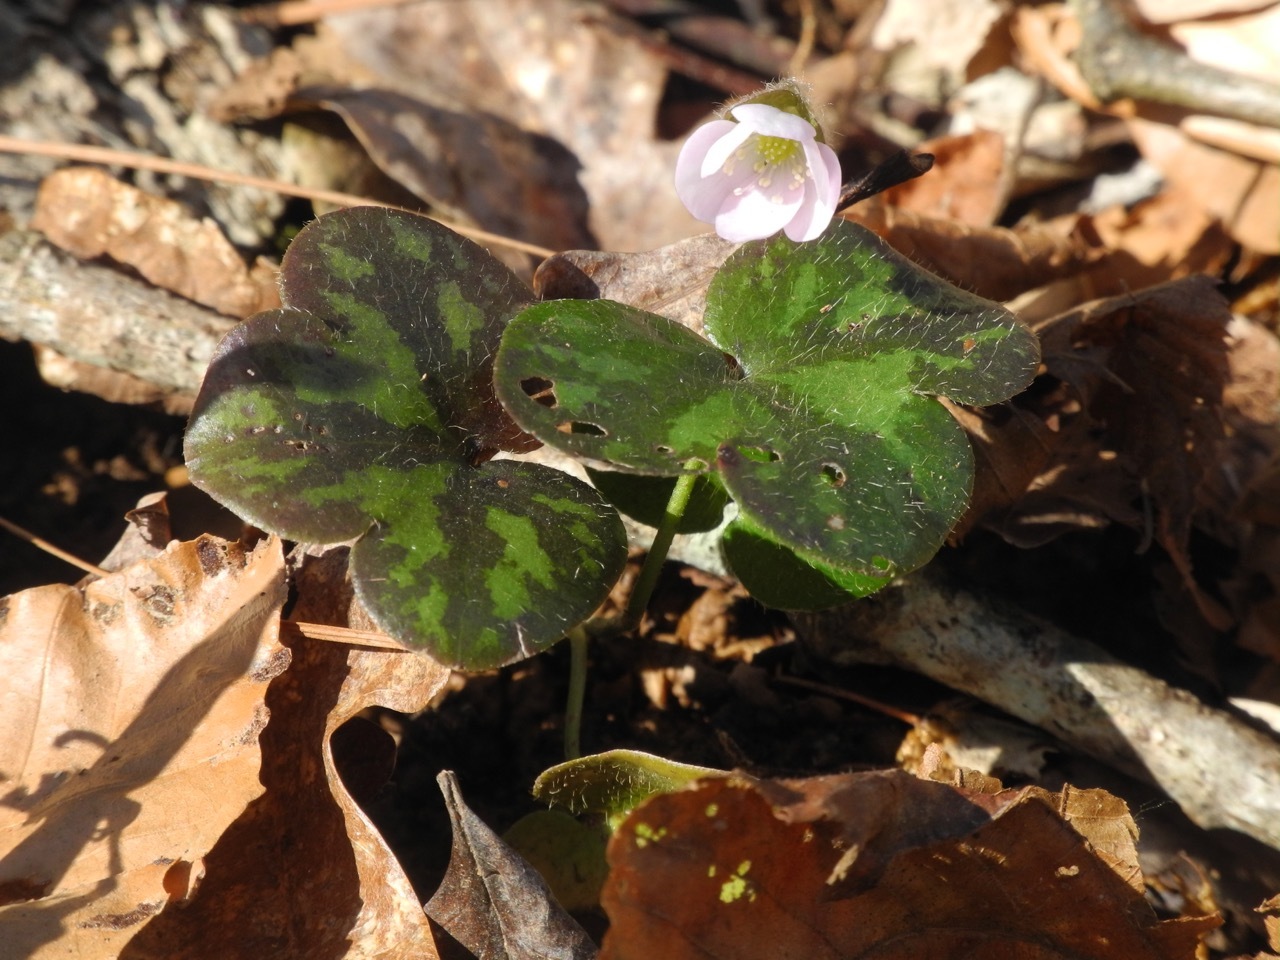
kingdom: Plantae
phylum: Tracheophyta
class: Magnoliopsida
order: Ranunculales
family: Ranunculaceae
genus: Hepatica
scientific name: Hepatica americana
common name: American hepatica
